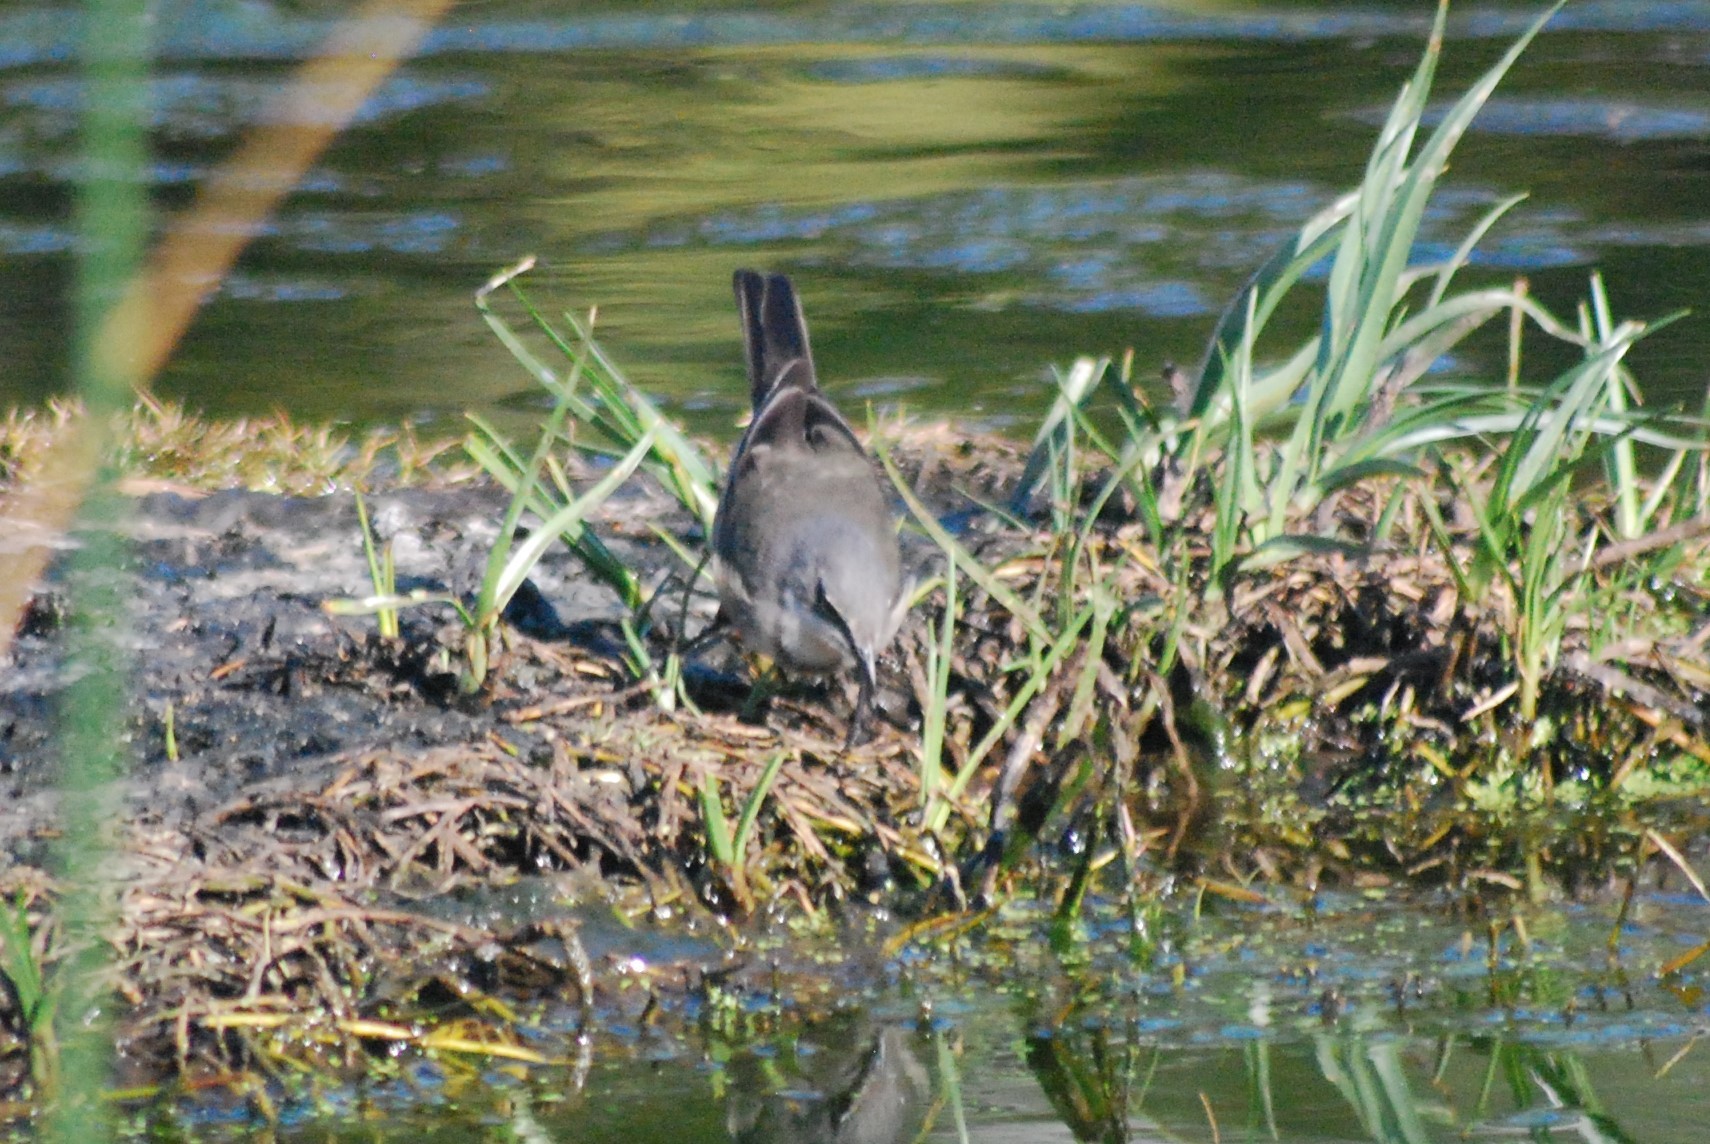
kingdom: Animalia
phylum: Chordata
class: Aves
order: Passeriformes
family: Motacillidae
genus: Motacilla
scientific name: Motacilla capensis
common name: Cape wagtail
